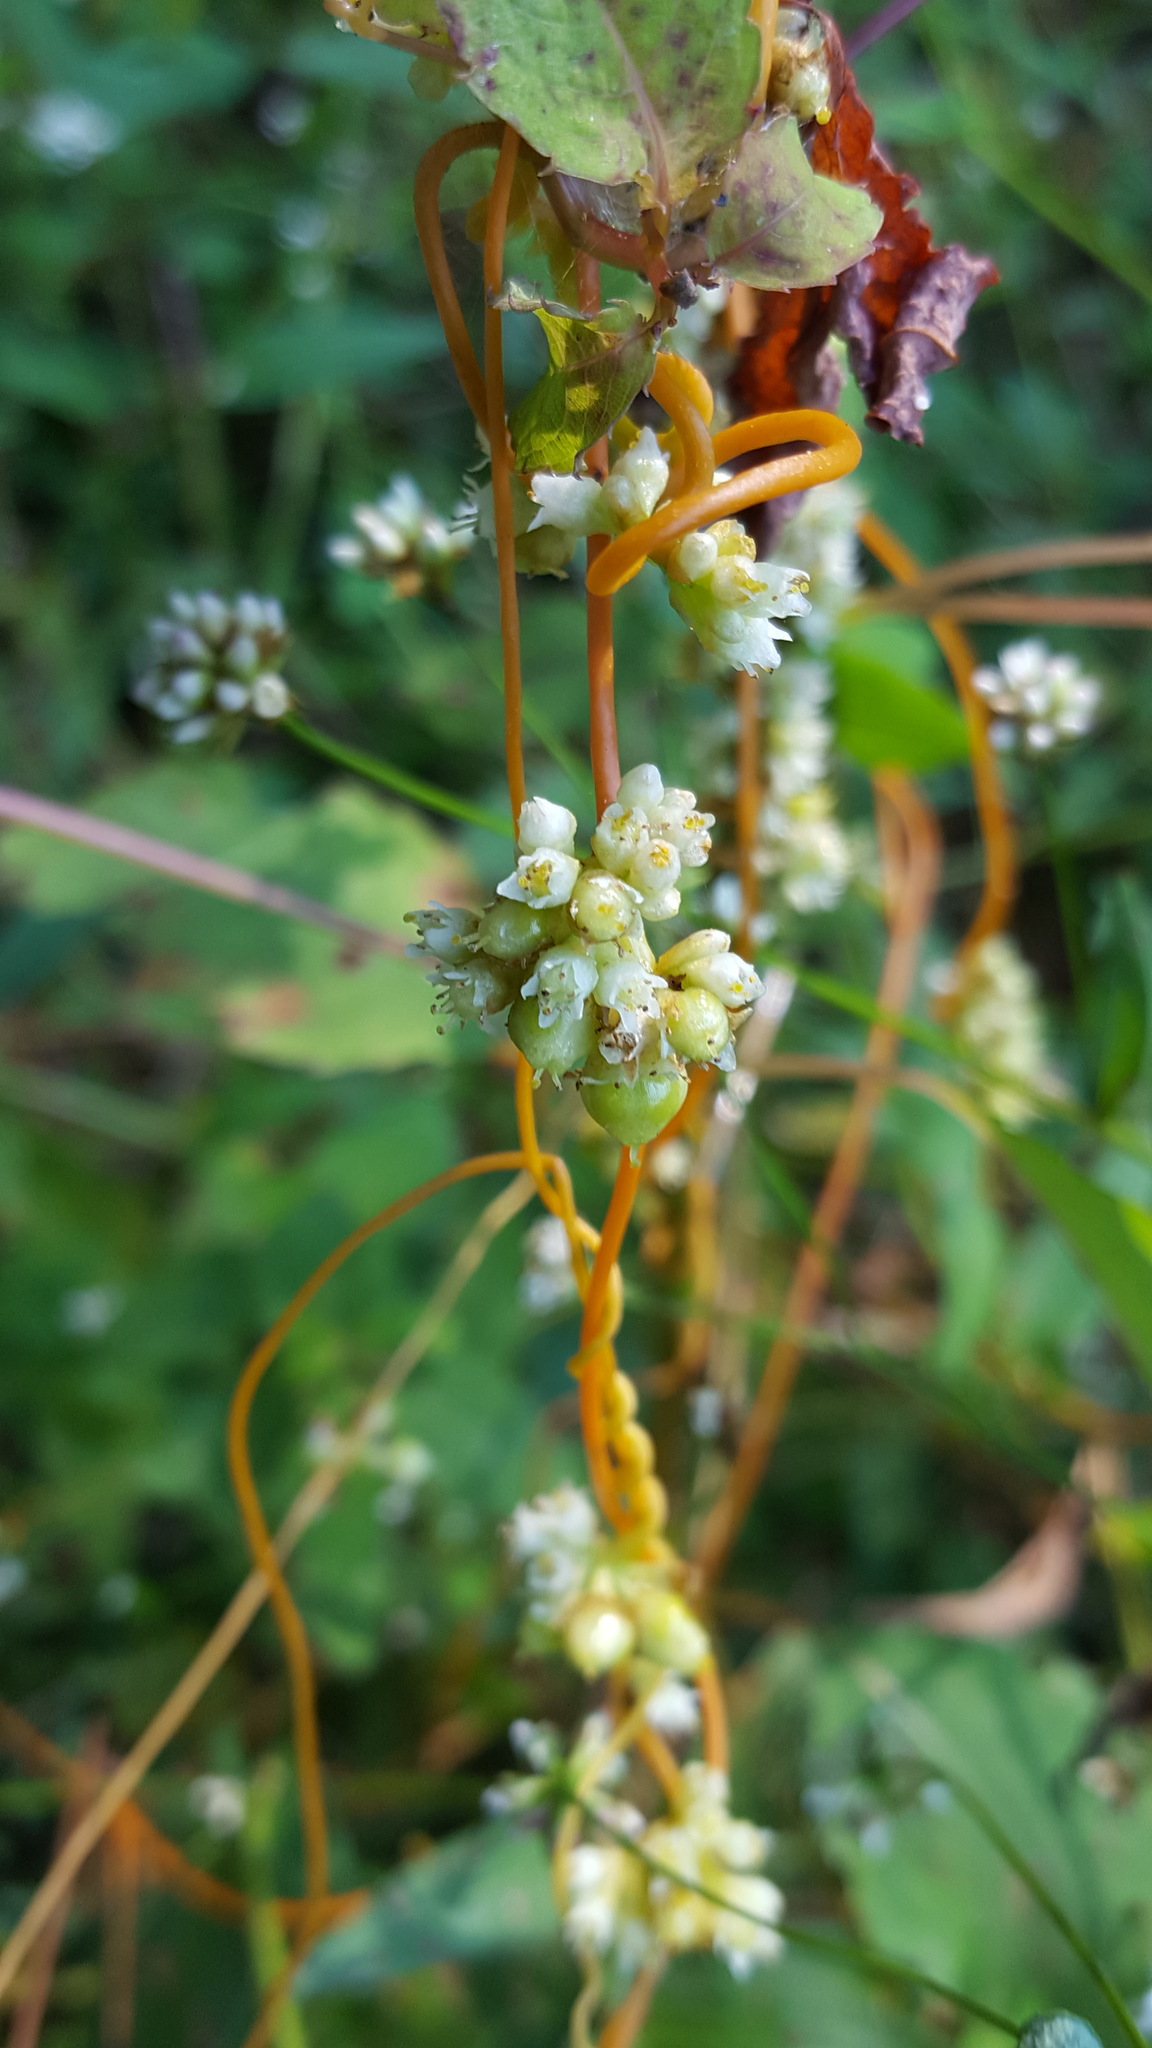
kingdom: Plantae
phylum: Tracheophyta
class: Magnoliopsida
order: Solanales
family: Convolvulaceae
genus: Cuscuta
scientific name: Cuscuta gronovii
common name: Common dodder
